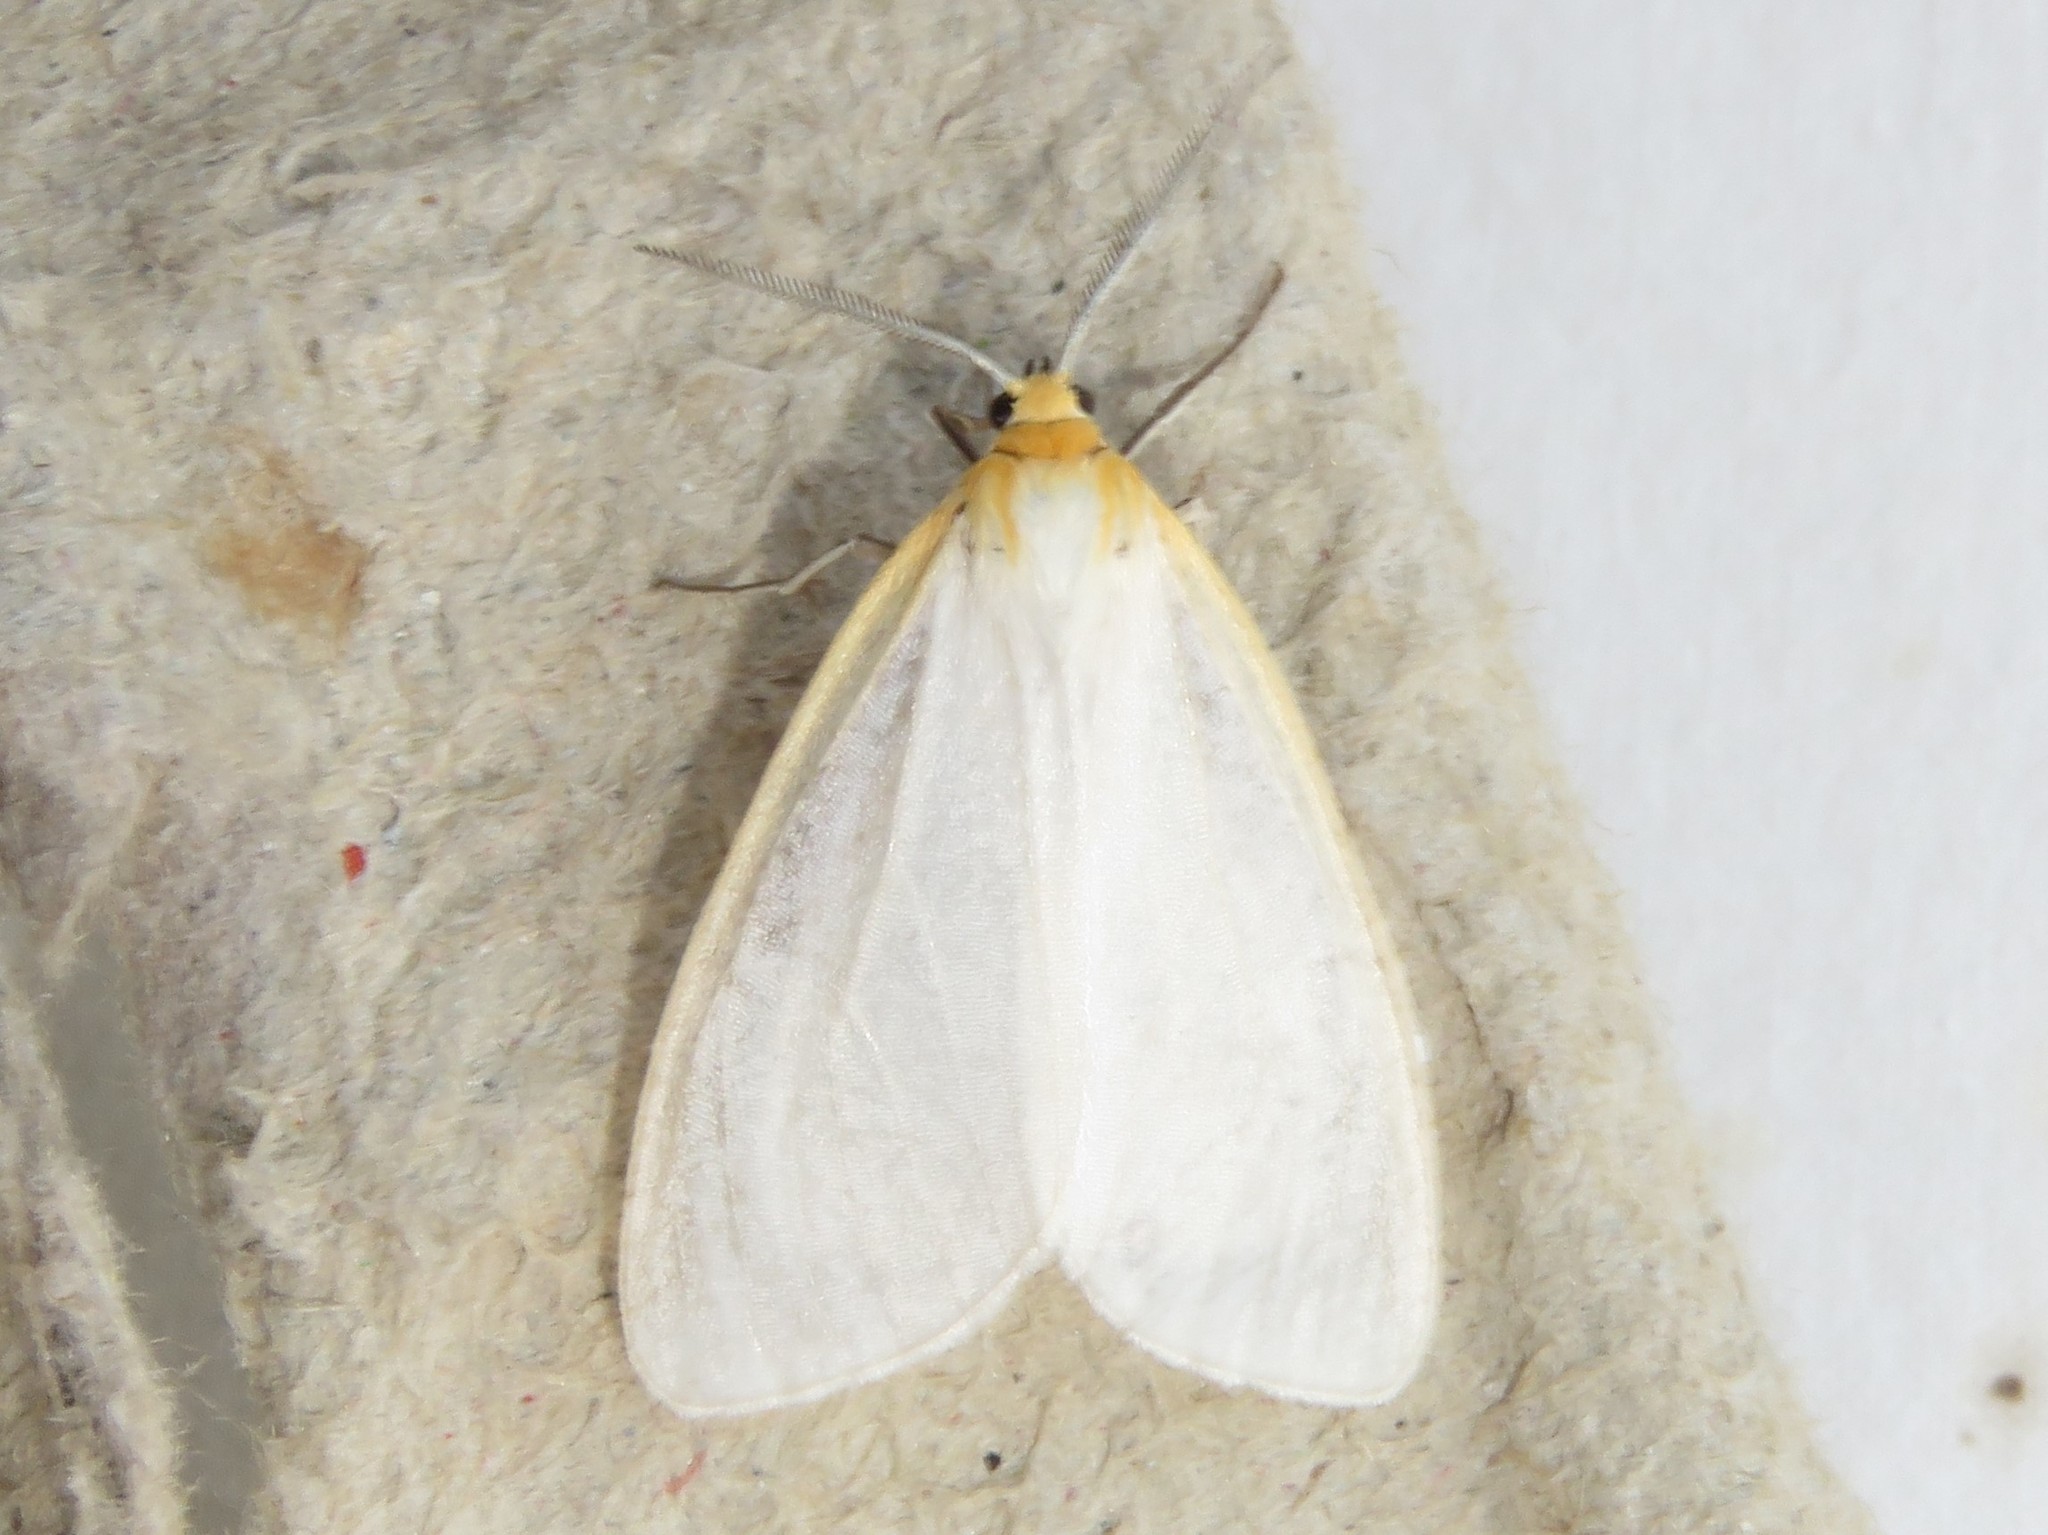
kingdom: Animalia
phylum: Arthropoda
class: Insecta
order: Lepidoptera
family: Erebidae
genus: Cycnia
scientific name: Cycnia tenera
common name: Delicate cycnia moth
